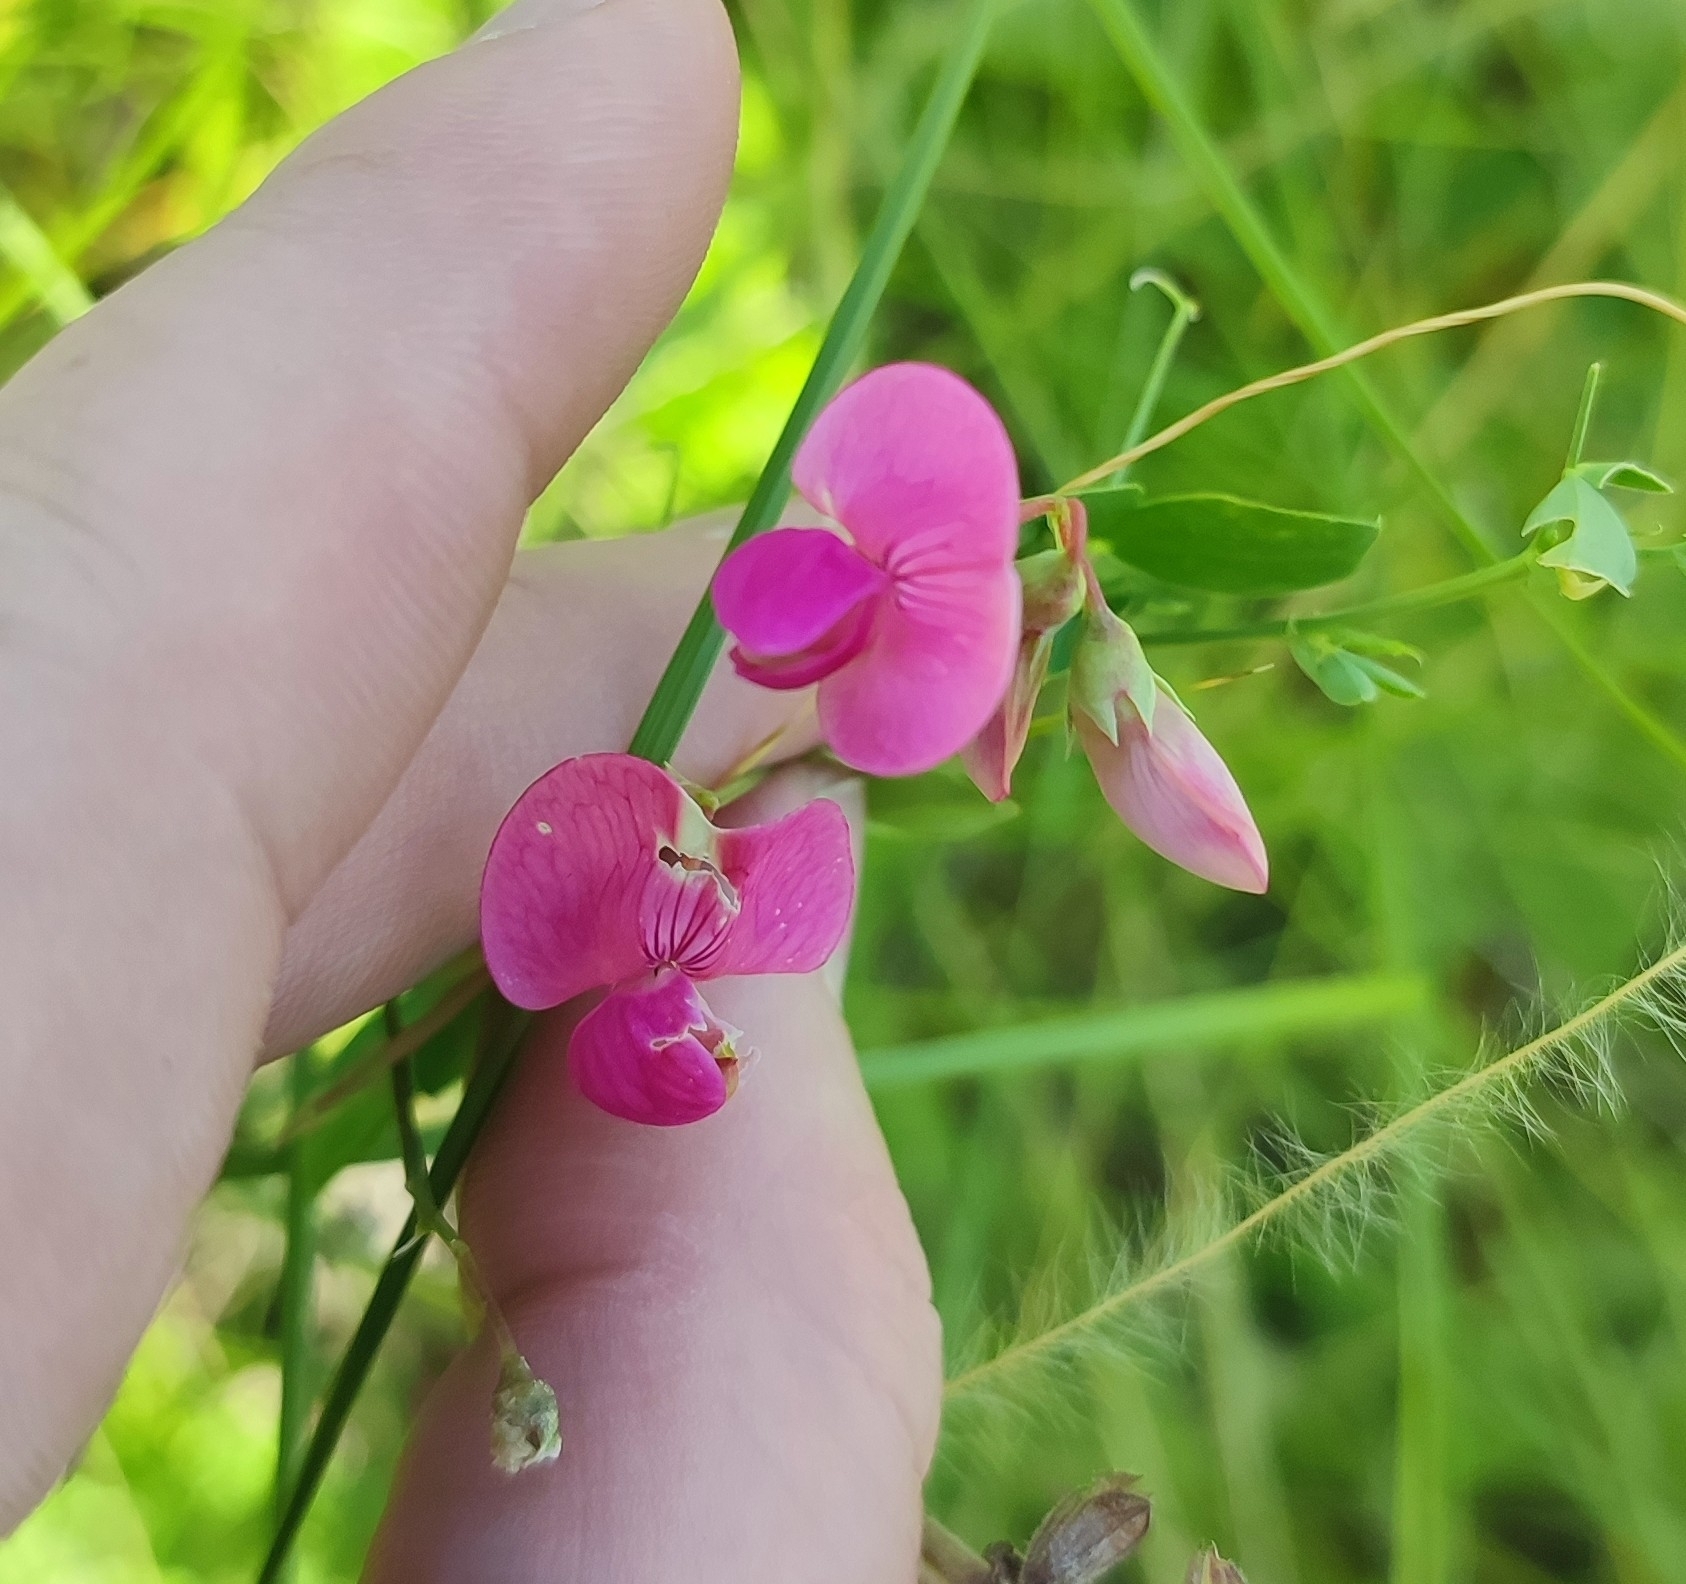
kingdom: Plantae
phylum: Tracheophyta
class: Magnoliopsida
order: Fabales
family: Fabaceae
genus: Lathyrus
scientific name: Lathyrus tuberosus
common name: Tuberous pea
